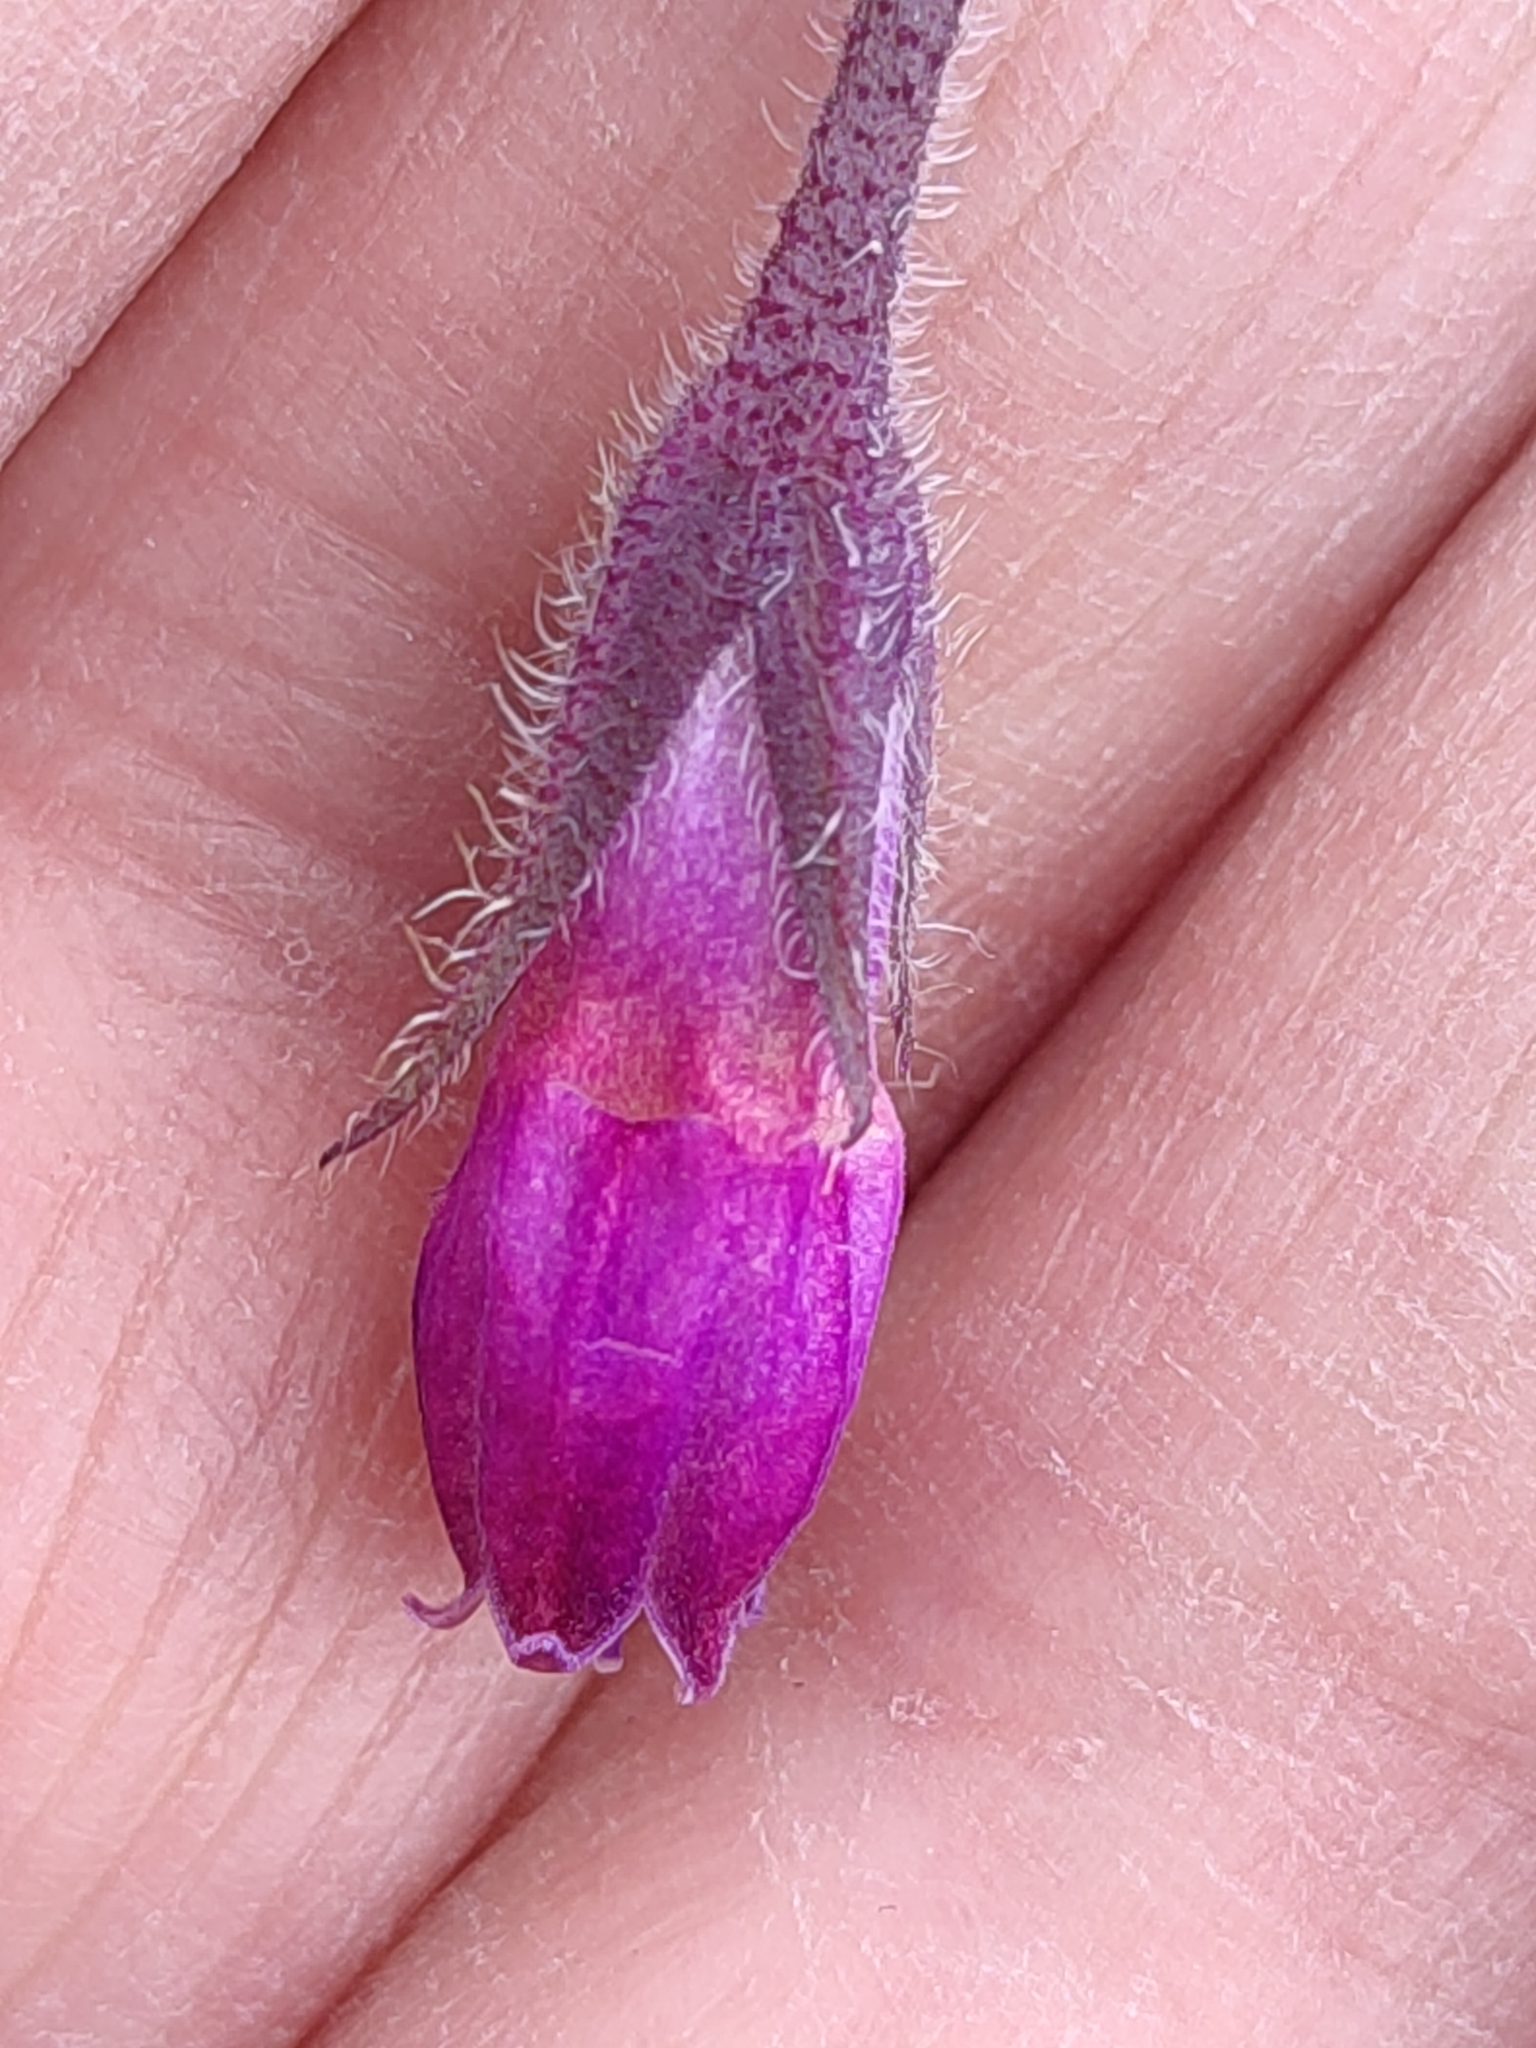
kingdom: Plantae
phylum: Tracheophyta
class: Magnoliopsida
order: Boraginales
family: Boraginaceae
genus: Symphytum
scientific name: Symphytum officinale
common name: Common comfrey
